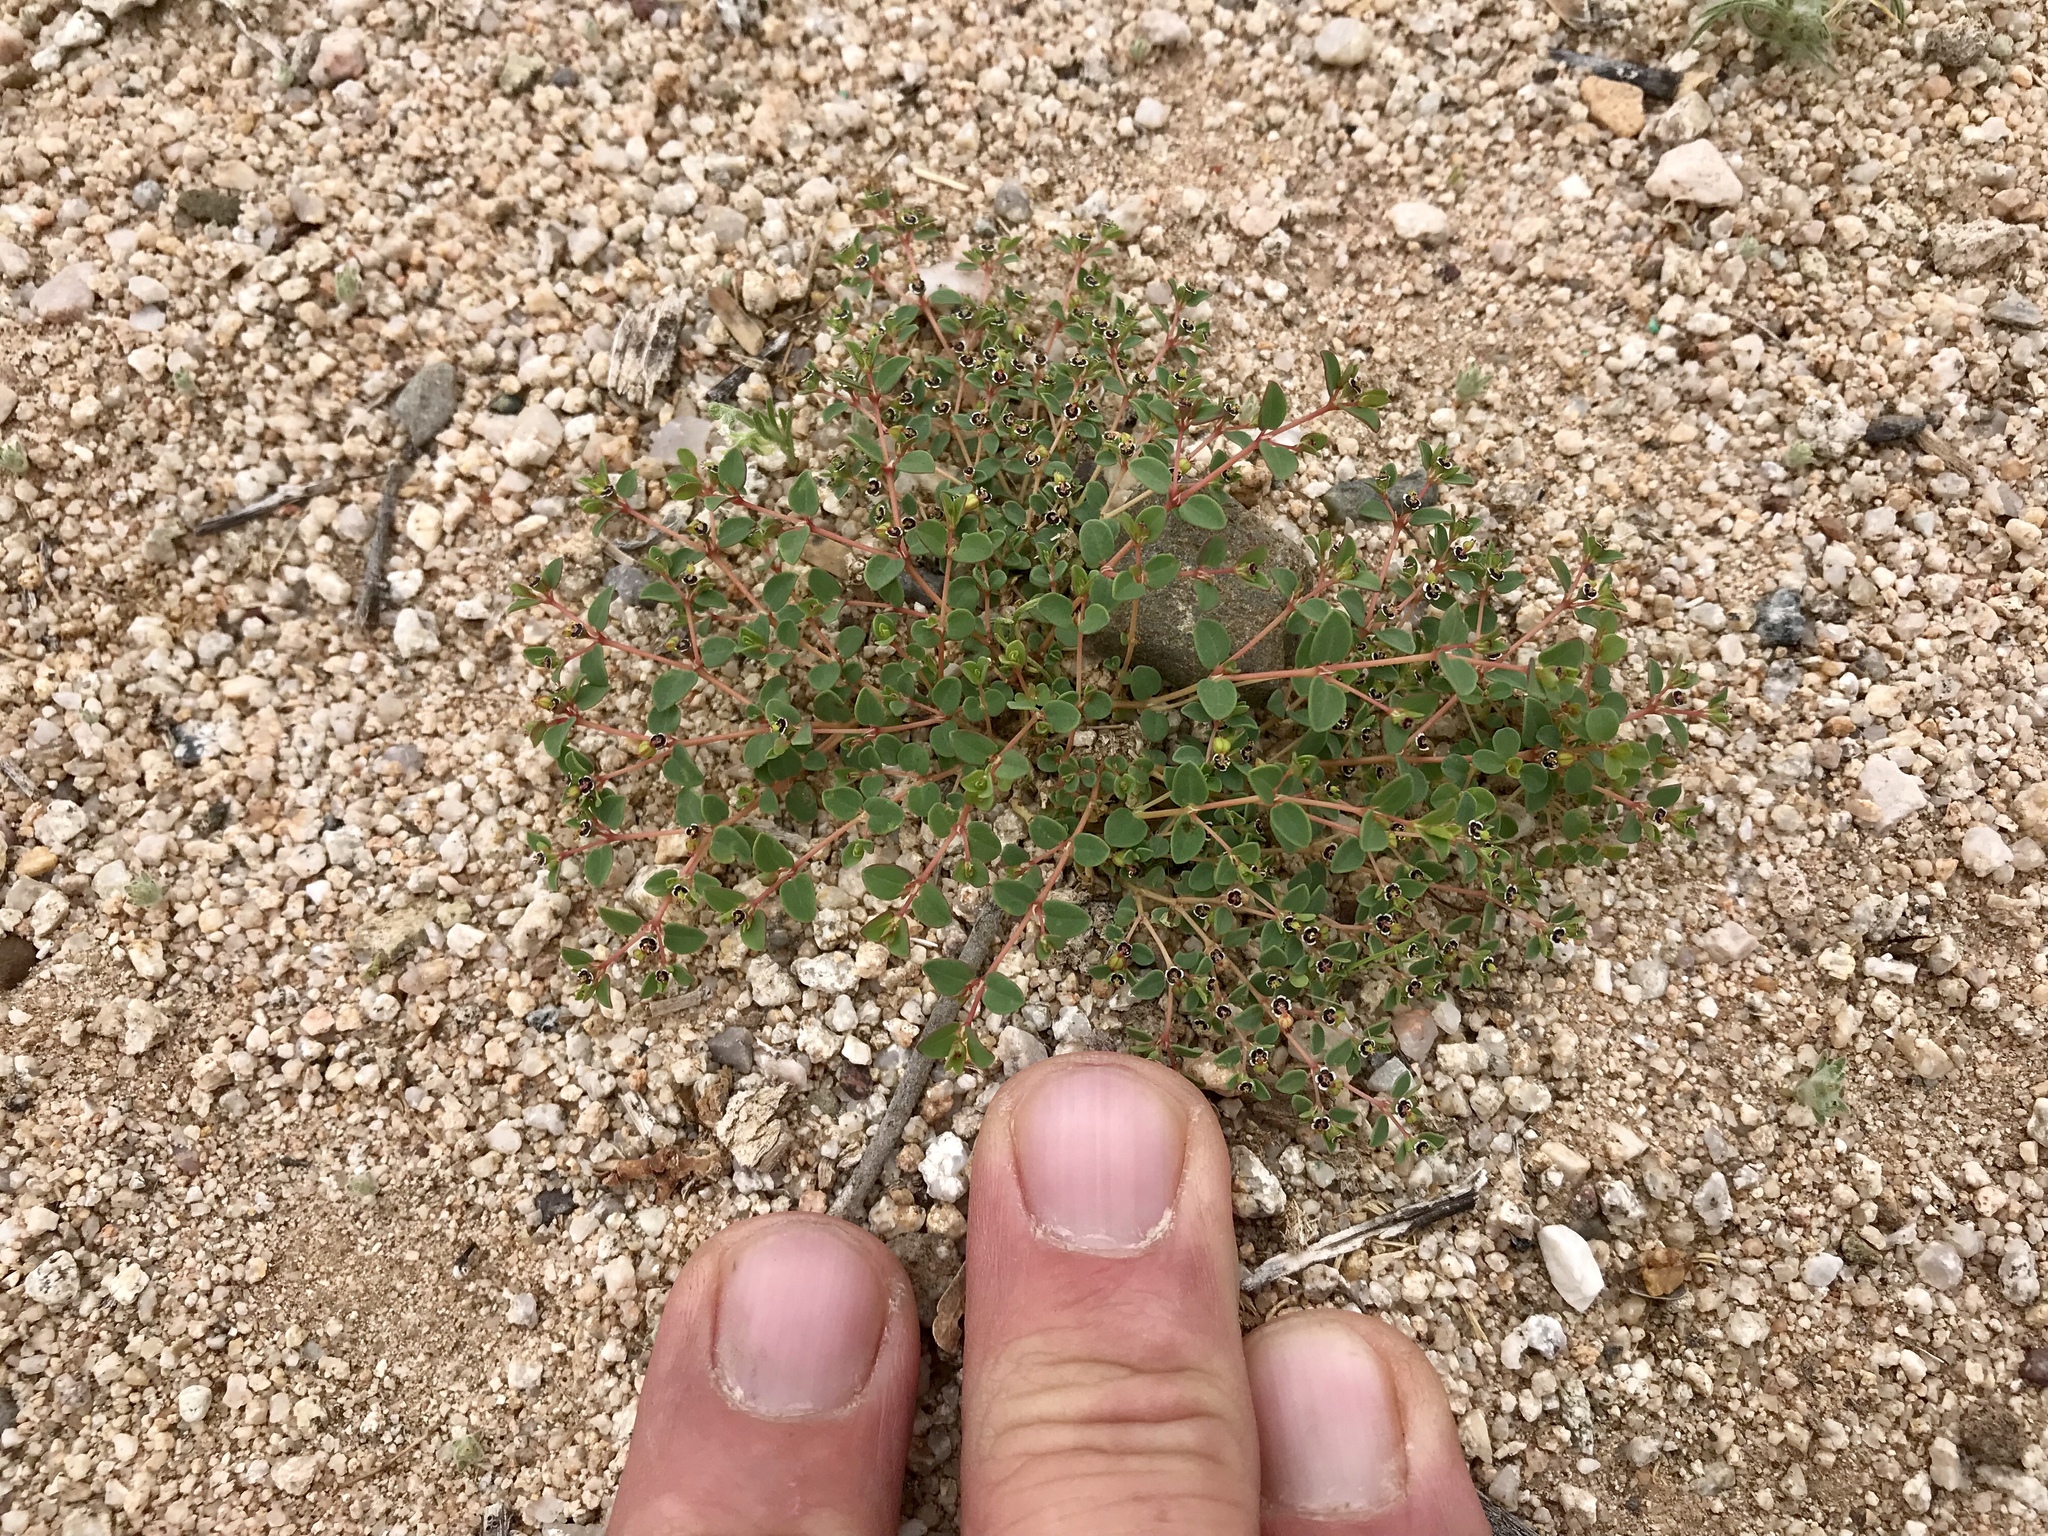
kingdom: Plantae
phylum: Tracheophyta
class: Magnoliopsida
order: Malpighiales
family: Euphorbiaceae
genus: Euphorbia
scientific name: Euphorbia polycarpa
